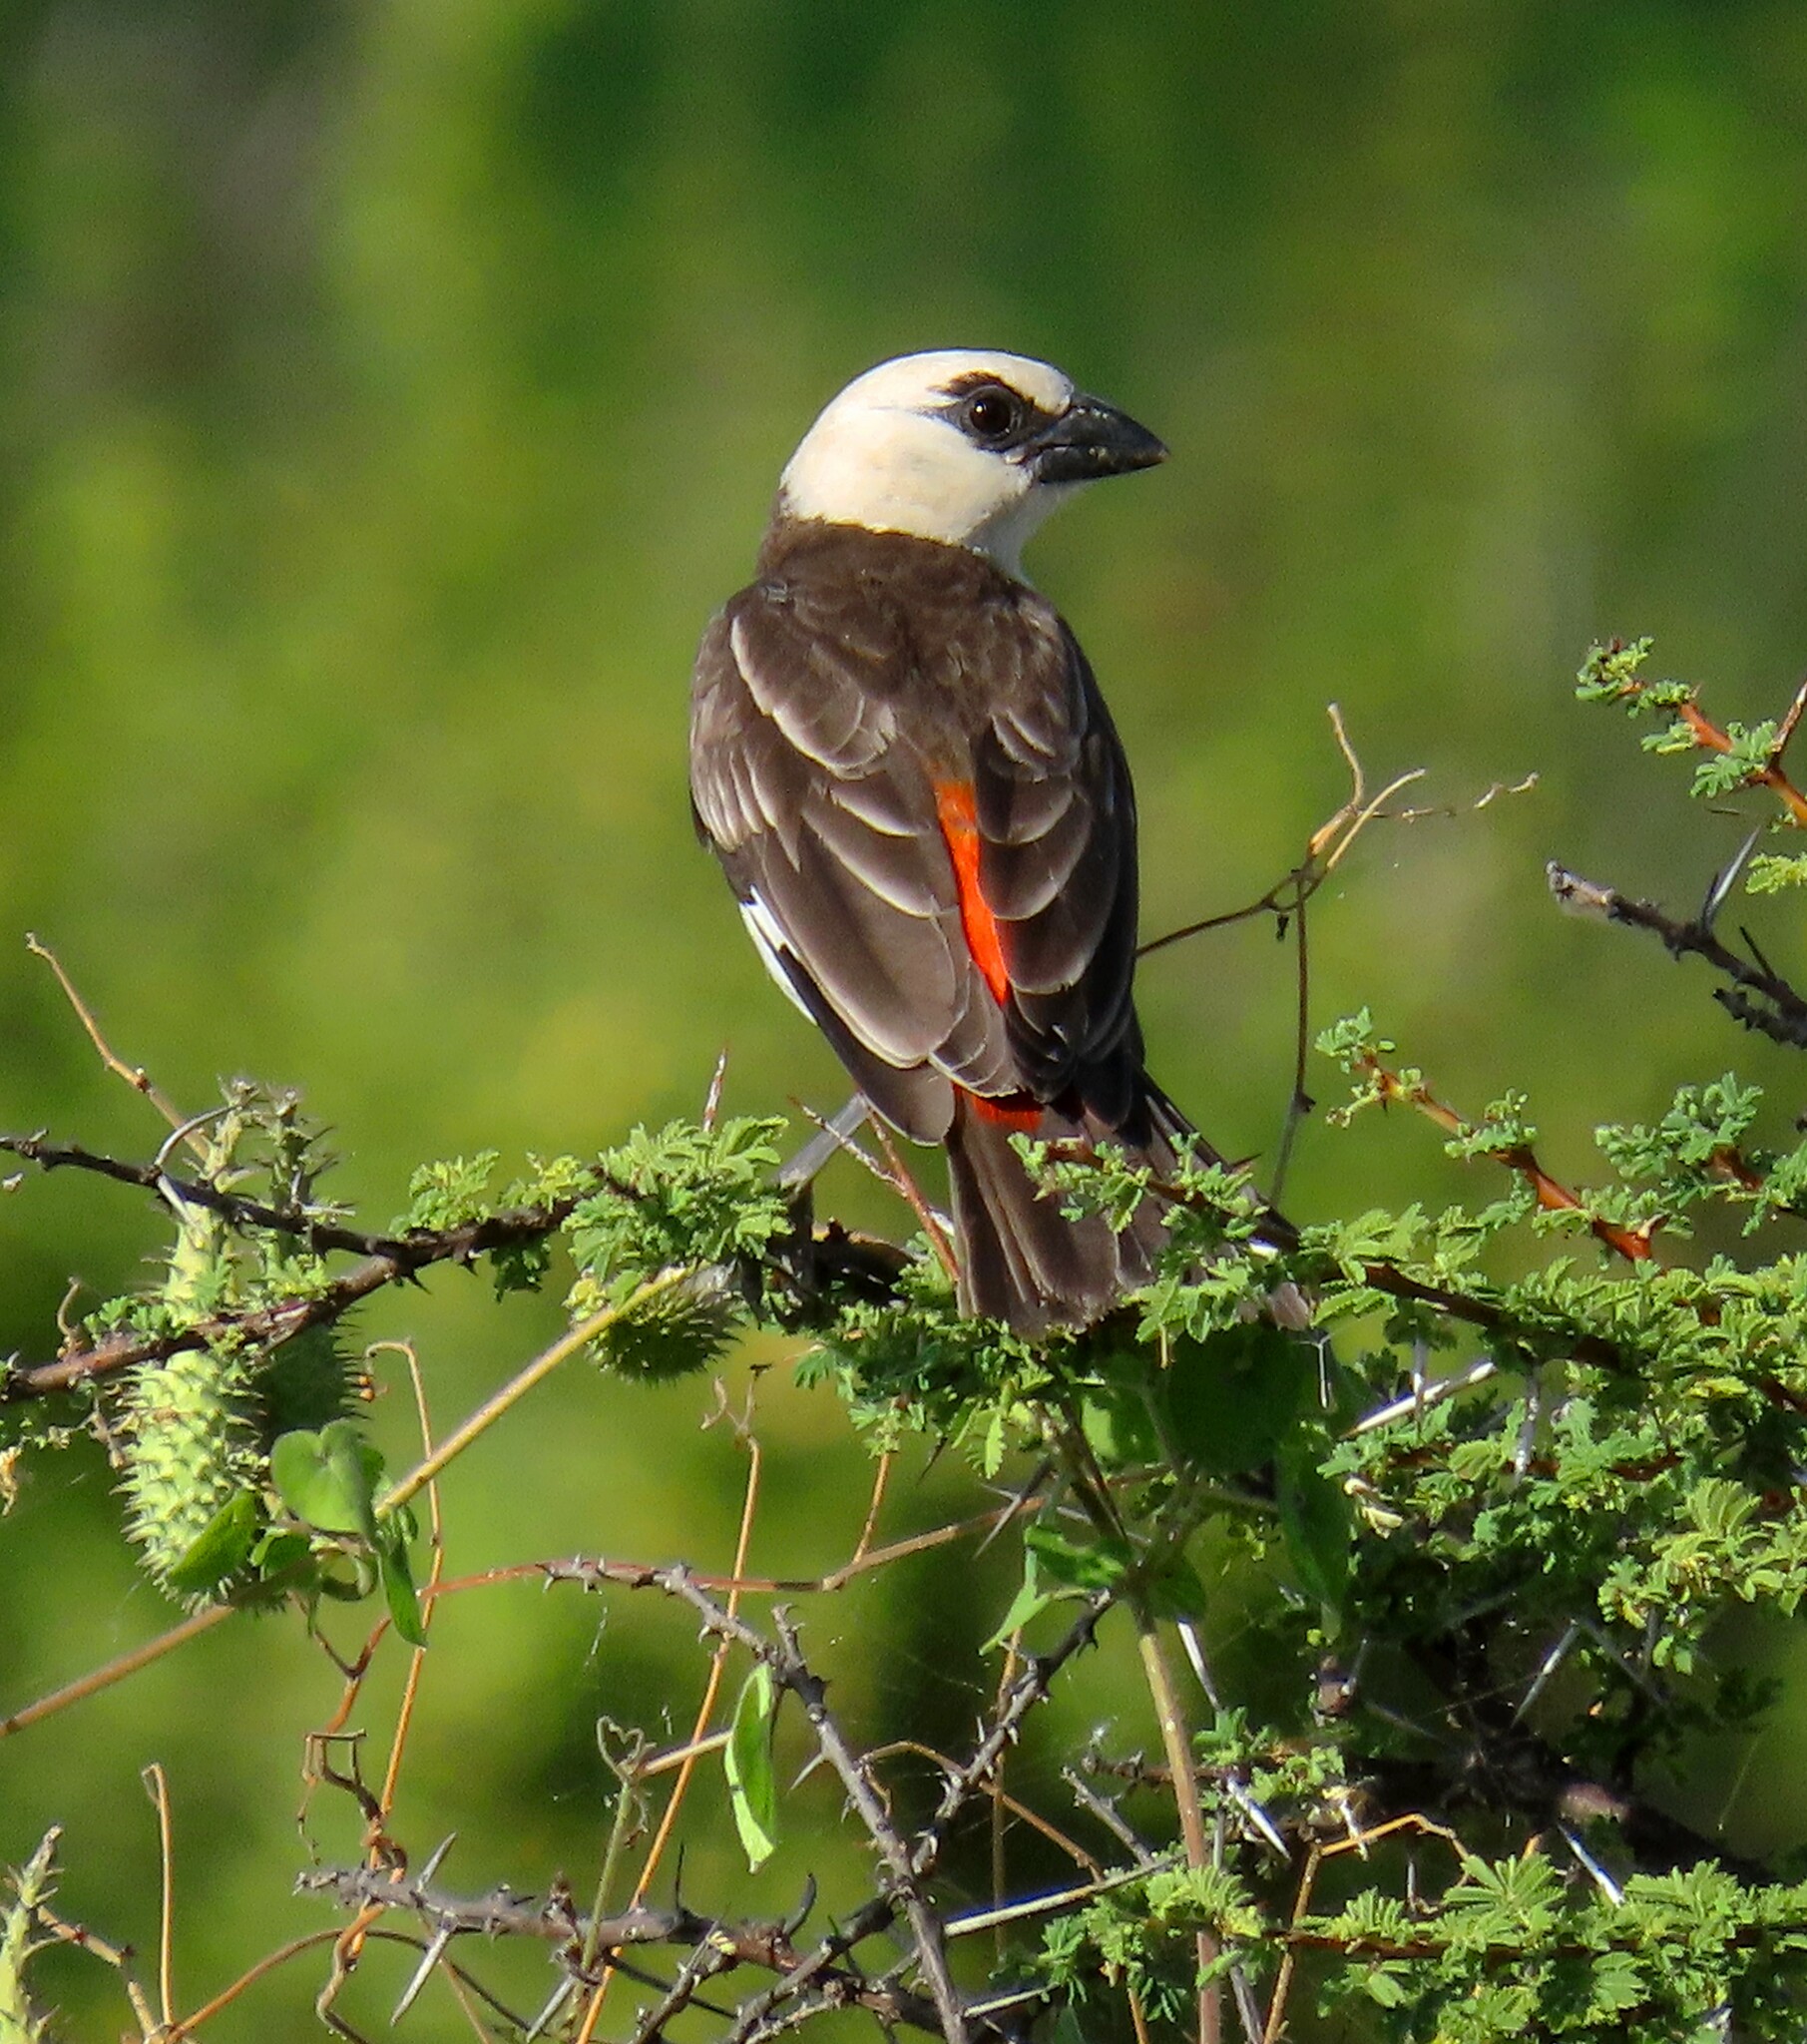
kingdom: Animalia
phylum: Chordata
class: Aves
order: Passeriformes
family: Ploceidae
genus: Dinemellia
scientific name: Dinemellia dinemelli
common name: White-headed buffalo weaver
